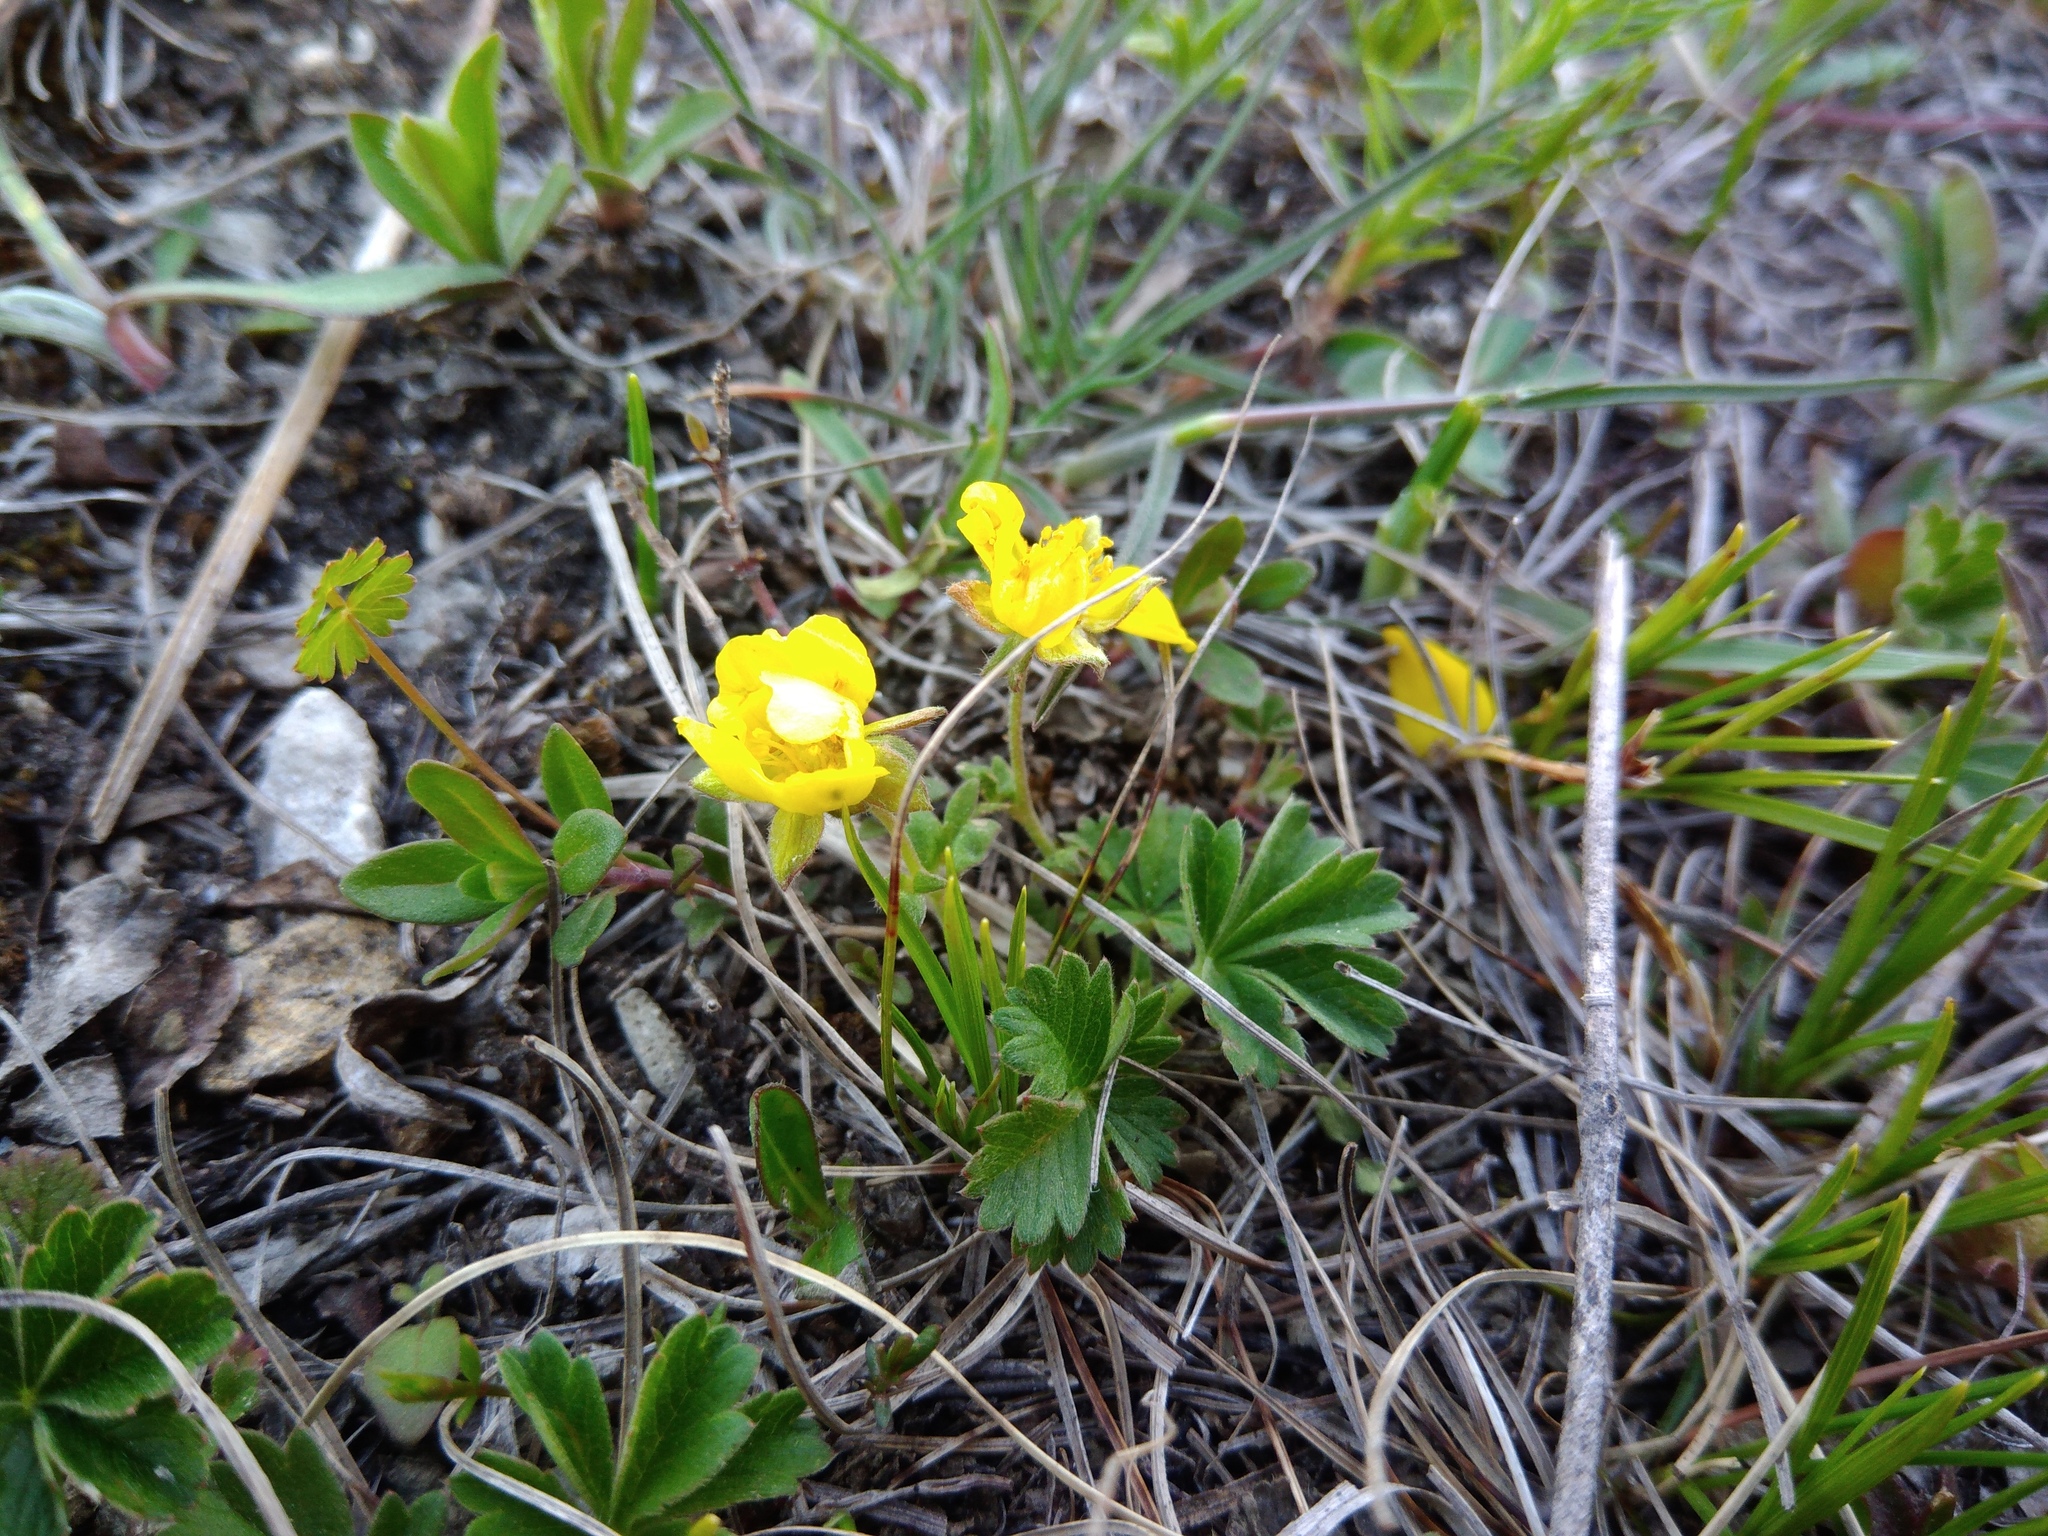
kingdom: Plantae
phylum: Tracheophyta
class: Magnoliopsida
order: Rosales
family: Rosaceae
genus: Potentilla
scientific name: Potentilla incana
